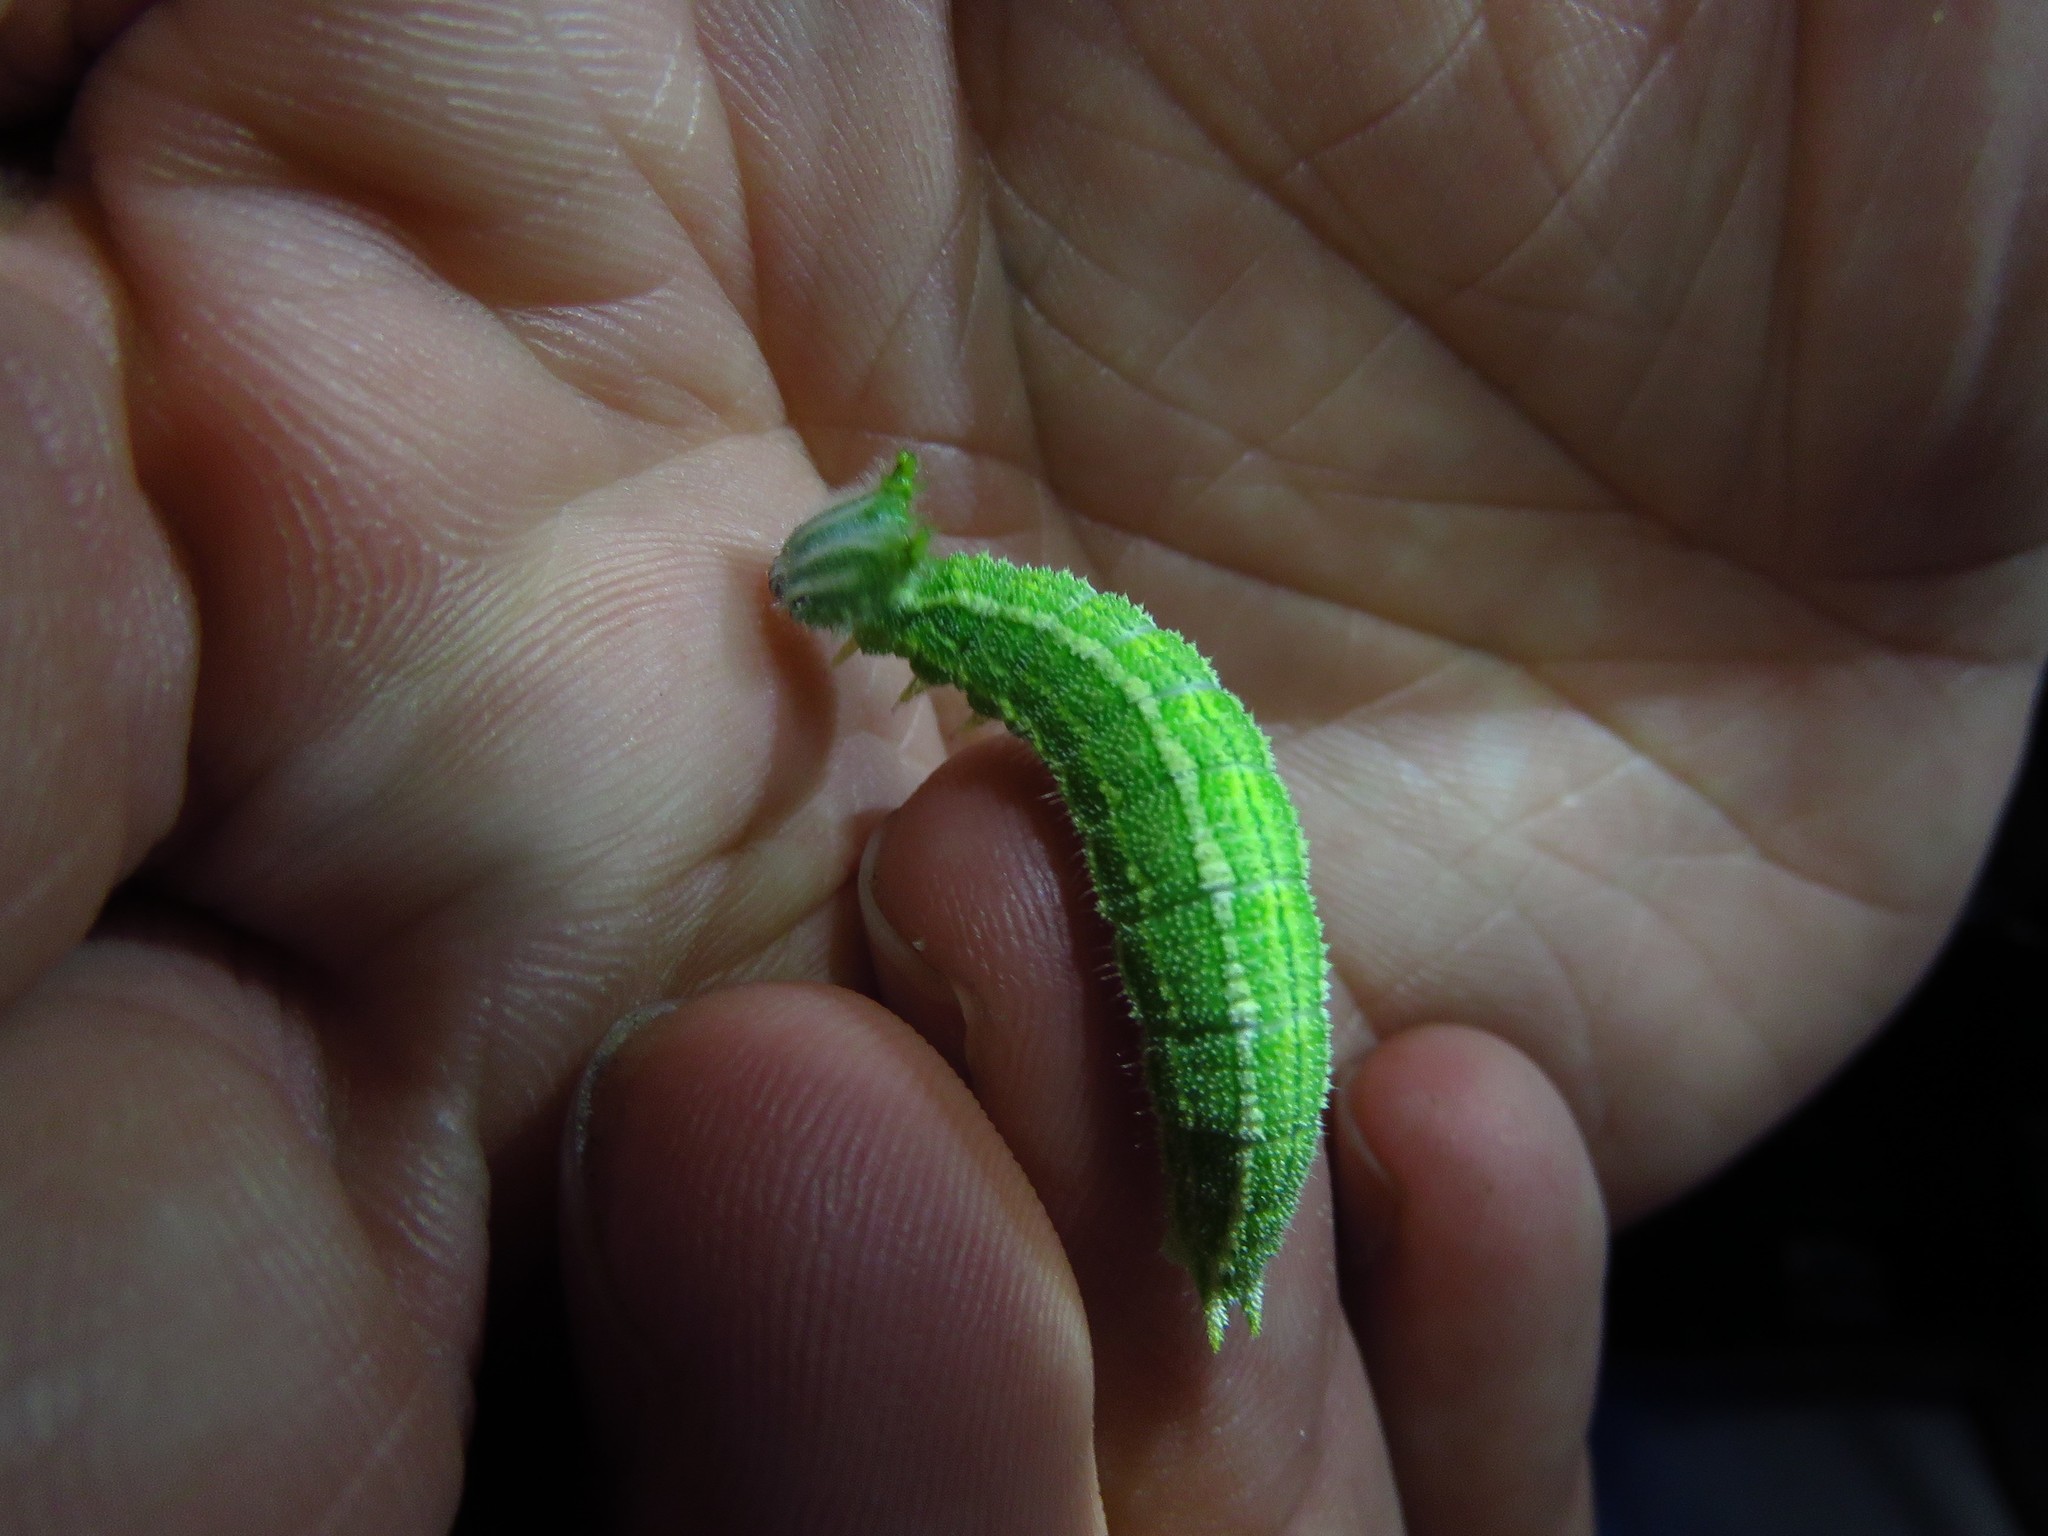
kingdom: Animalia
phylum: Arthropoda
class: Insecta
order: Lepidoptera
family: Nymphalidae
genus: Asterocampa
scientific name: Asterocampa celtis
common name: Hackberry emperor
